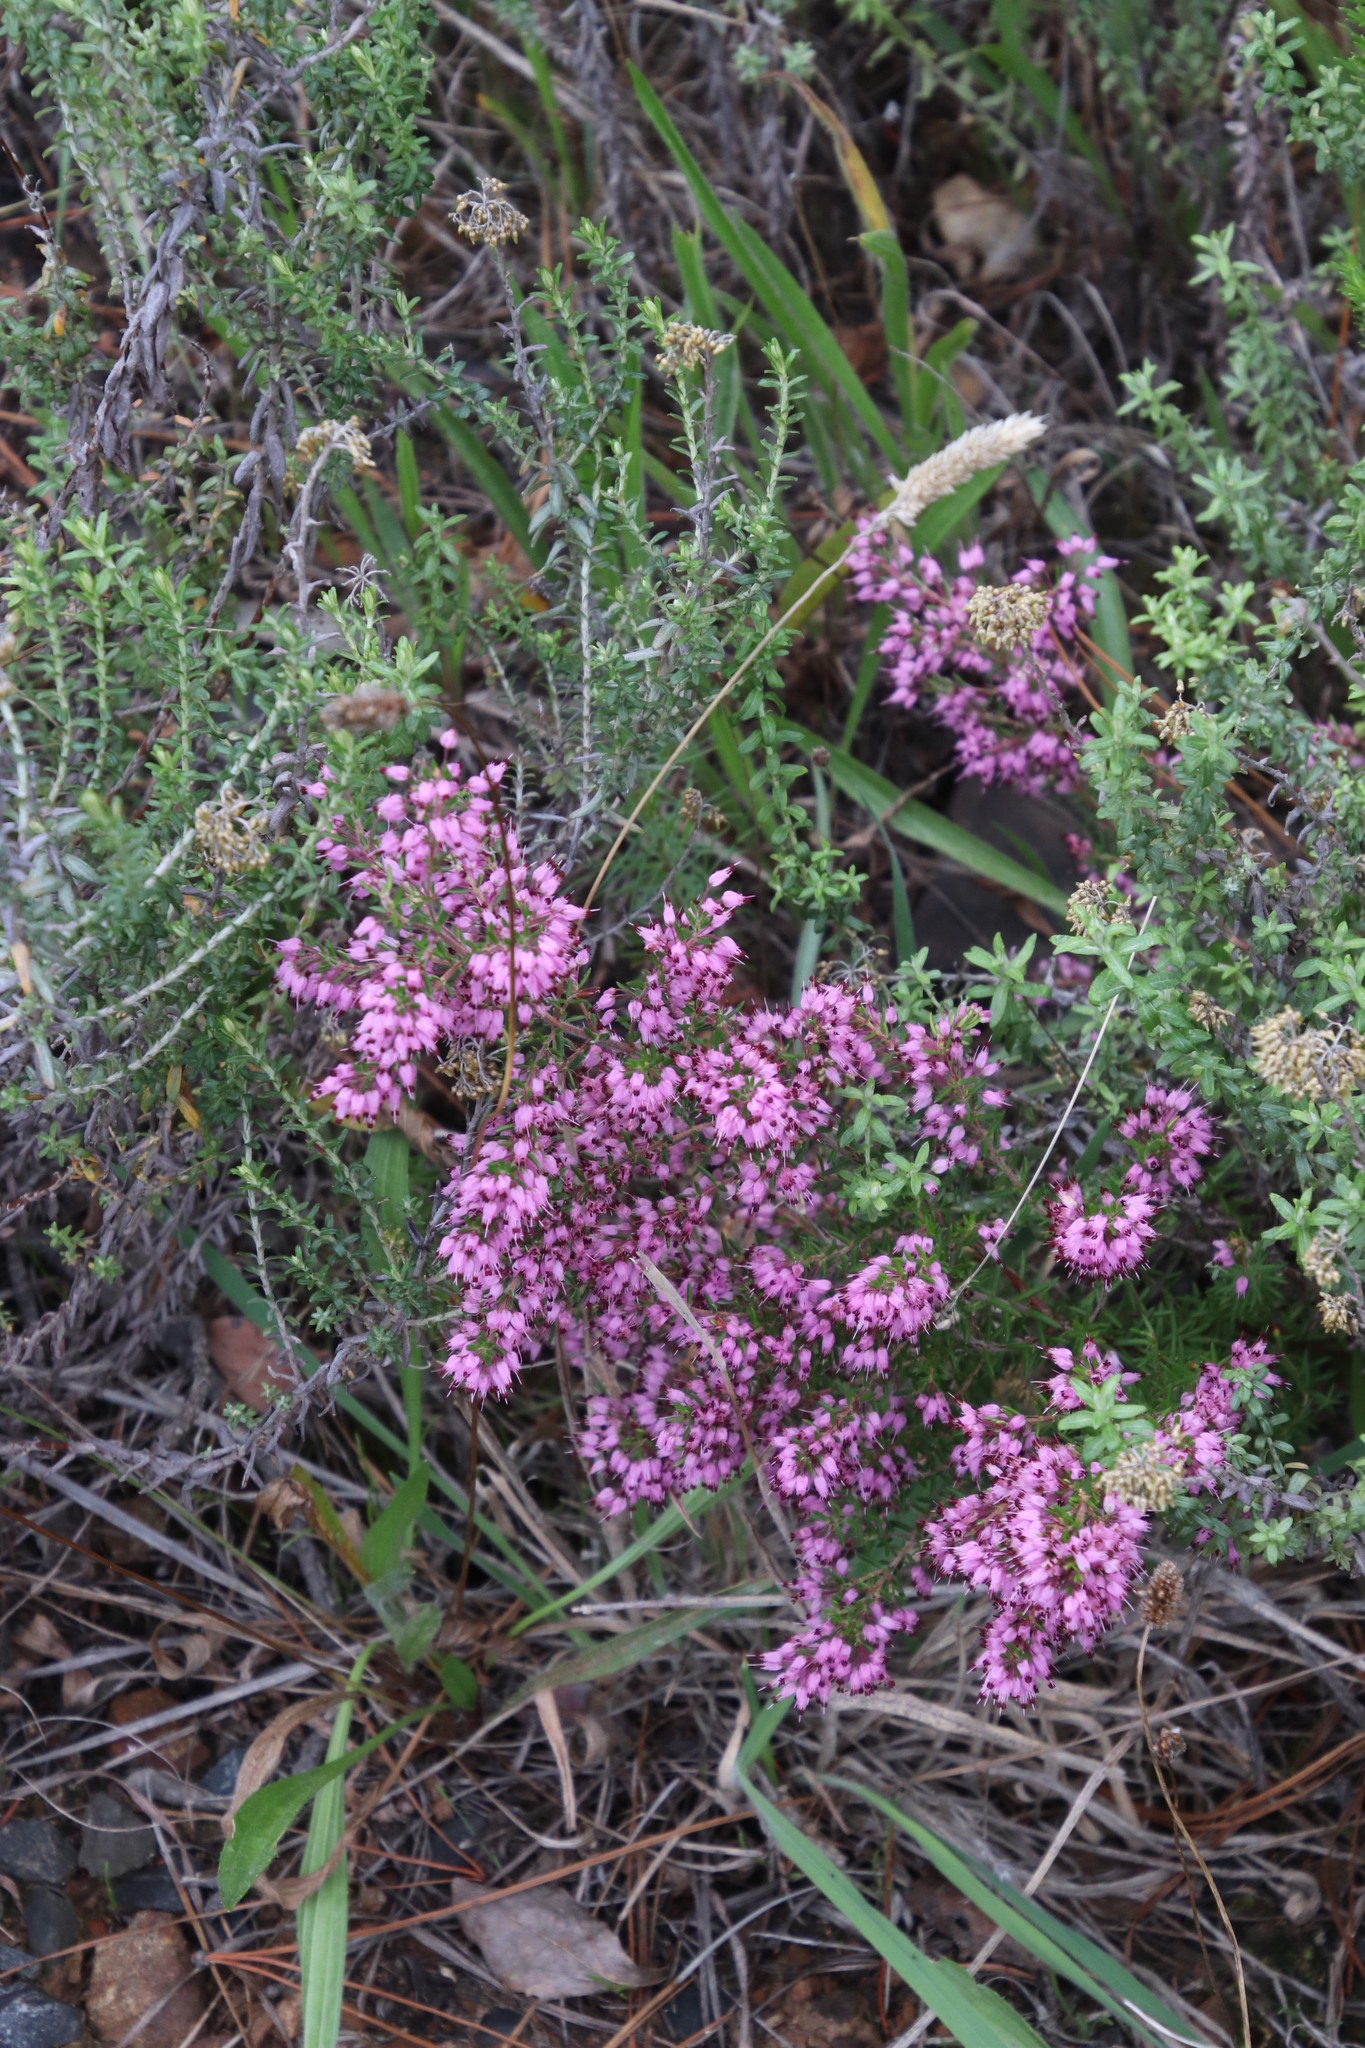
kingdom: Plantae
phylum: Tracheophyta
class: Magnoliopsida
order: Ericales
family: Ericaceae
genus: Erica
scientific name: Erica nudiflora
